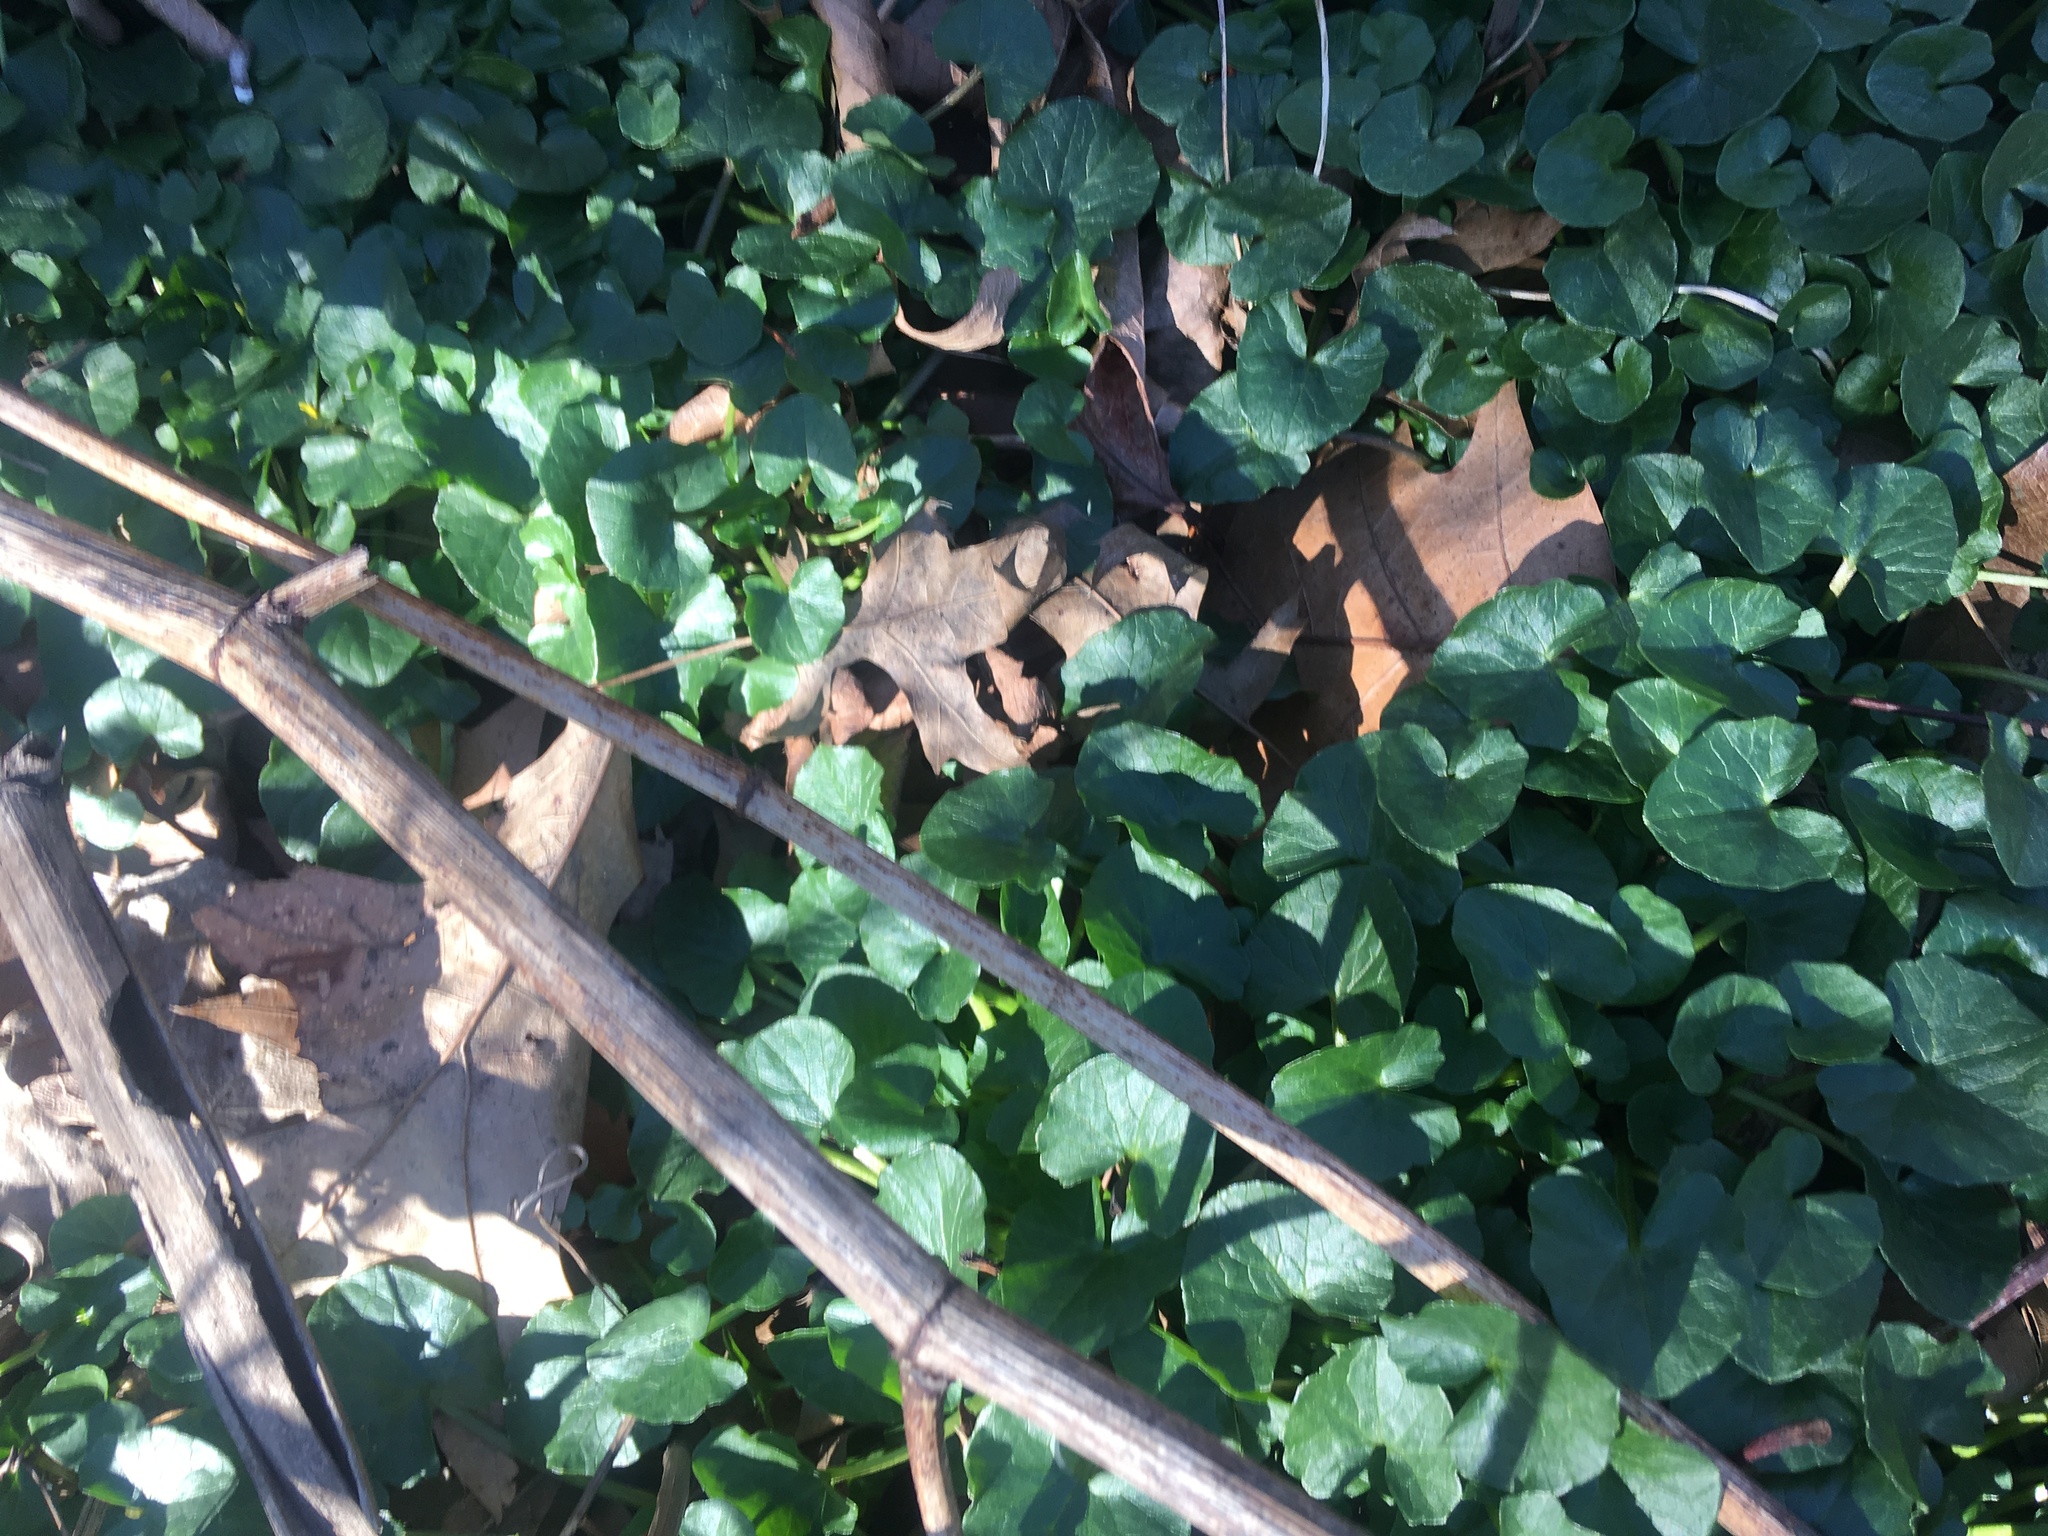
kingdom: Plantae
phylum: Tracheophyta
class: Magnoliopsida
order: Ranunculales
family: Ranunculaceae
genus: Ficaria
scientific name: Ficaria verna
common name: Lesser celandine
